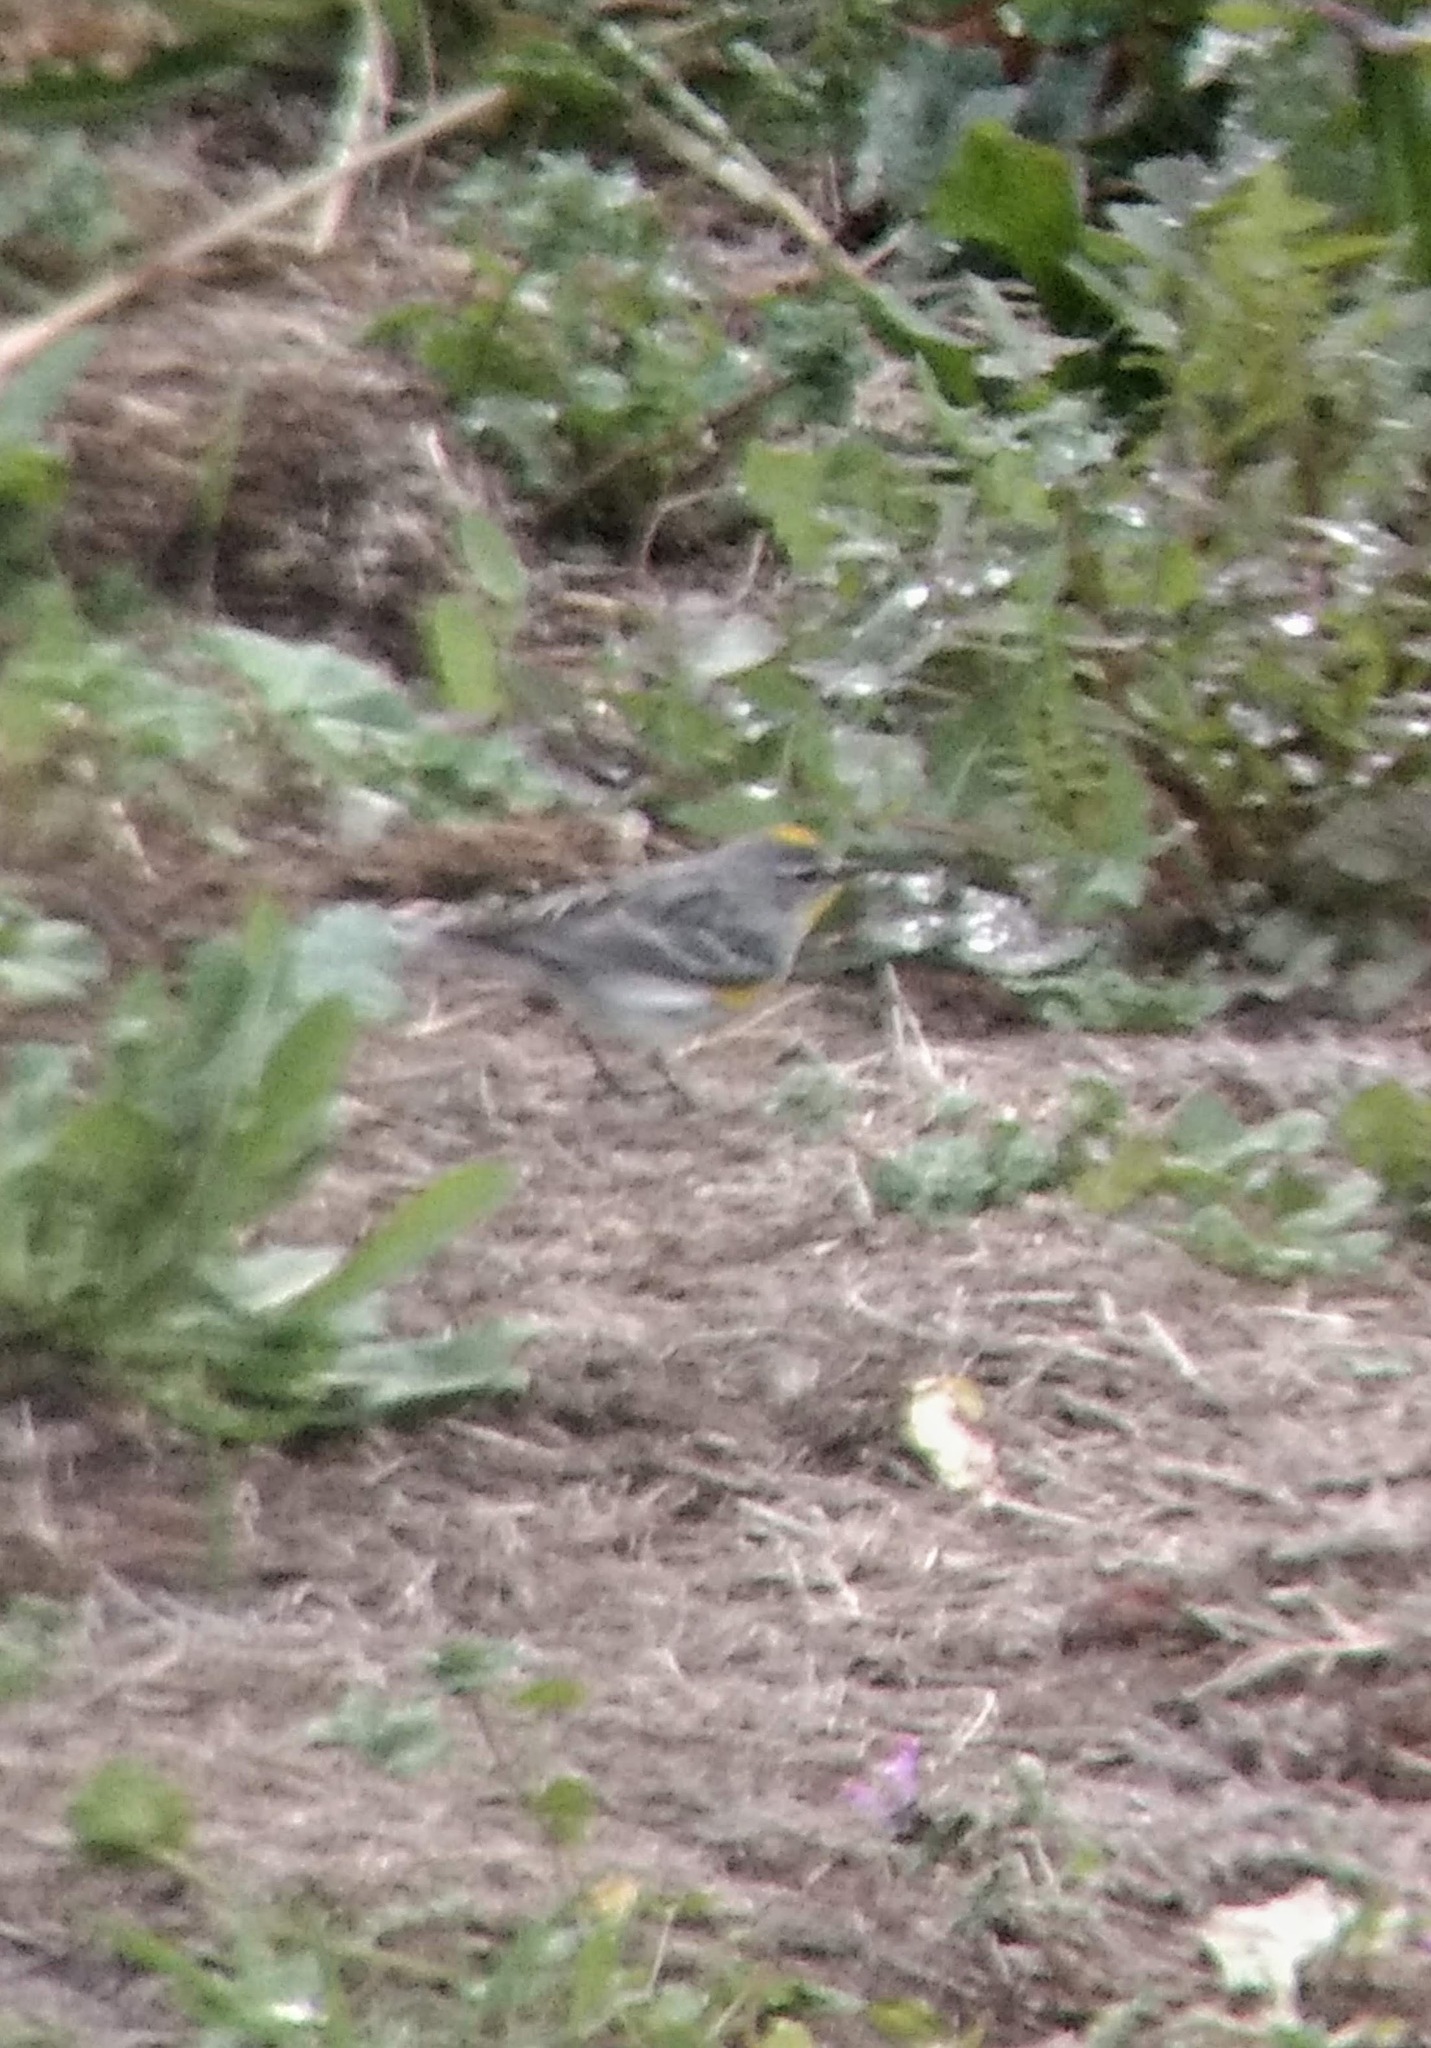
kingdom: Animalia
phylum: Chordata
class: Aves
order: Passeriformes
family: Parulidae
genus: Setophaga
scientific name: Setophaga coronata
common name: Myrtle warbler
